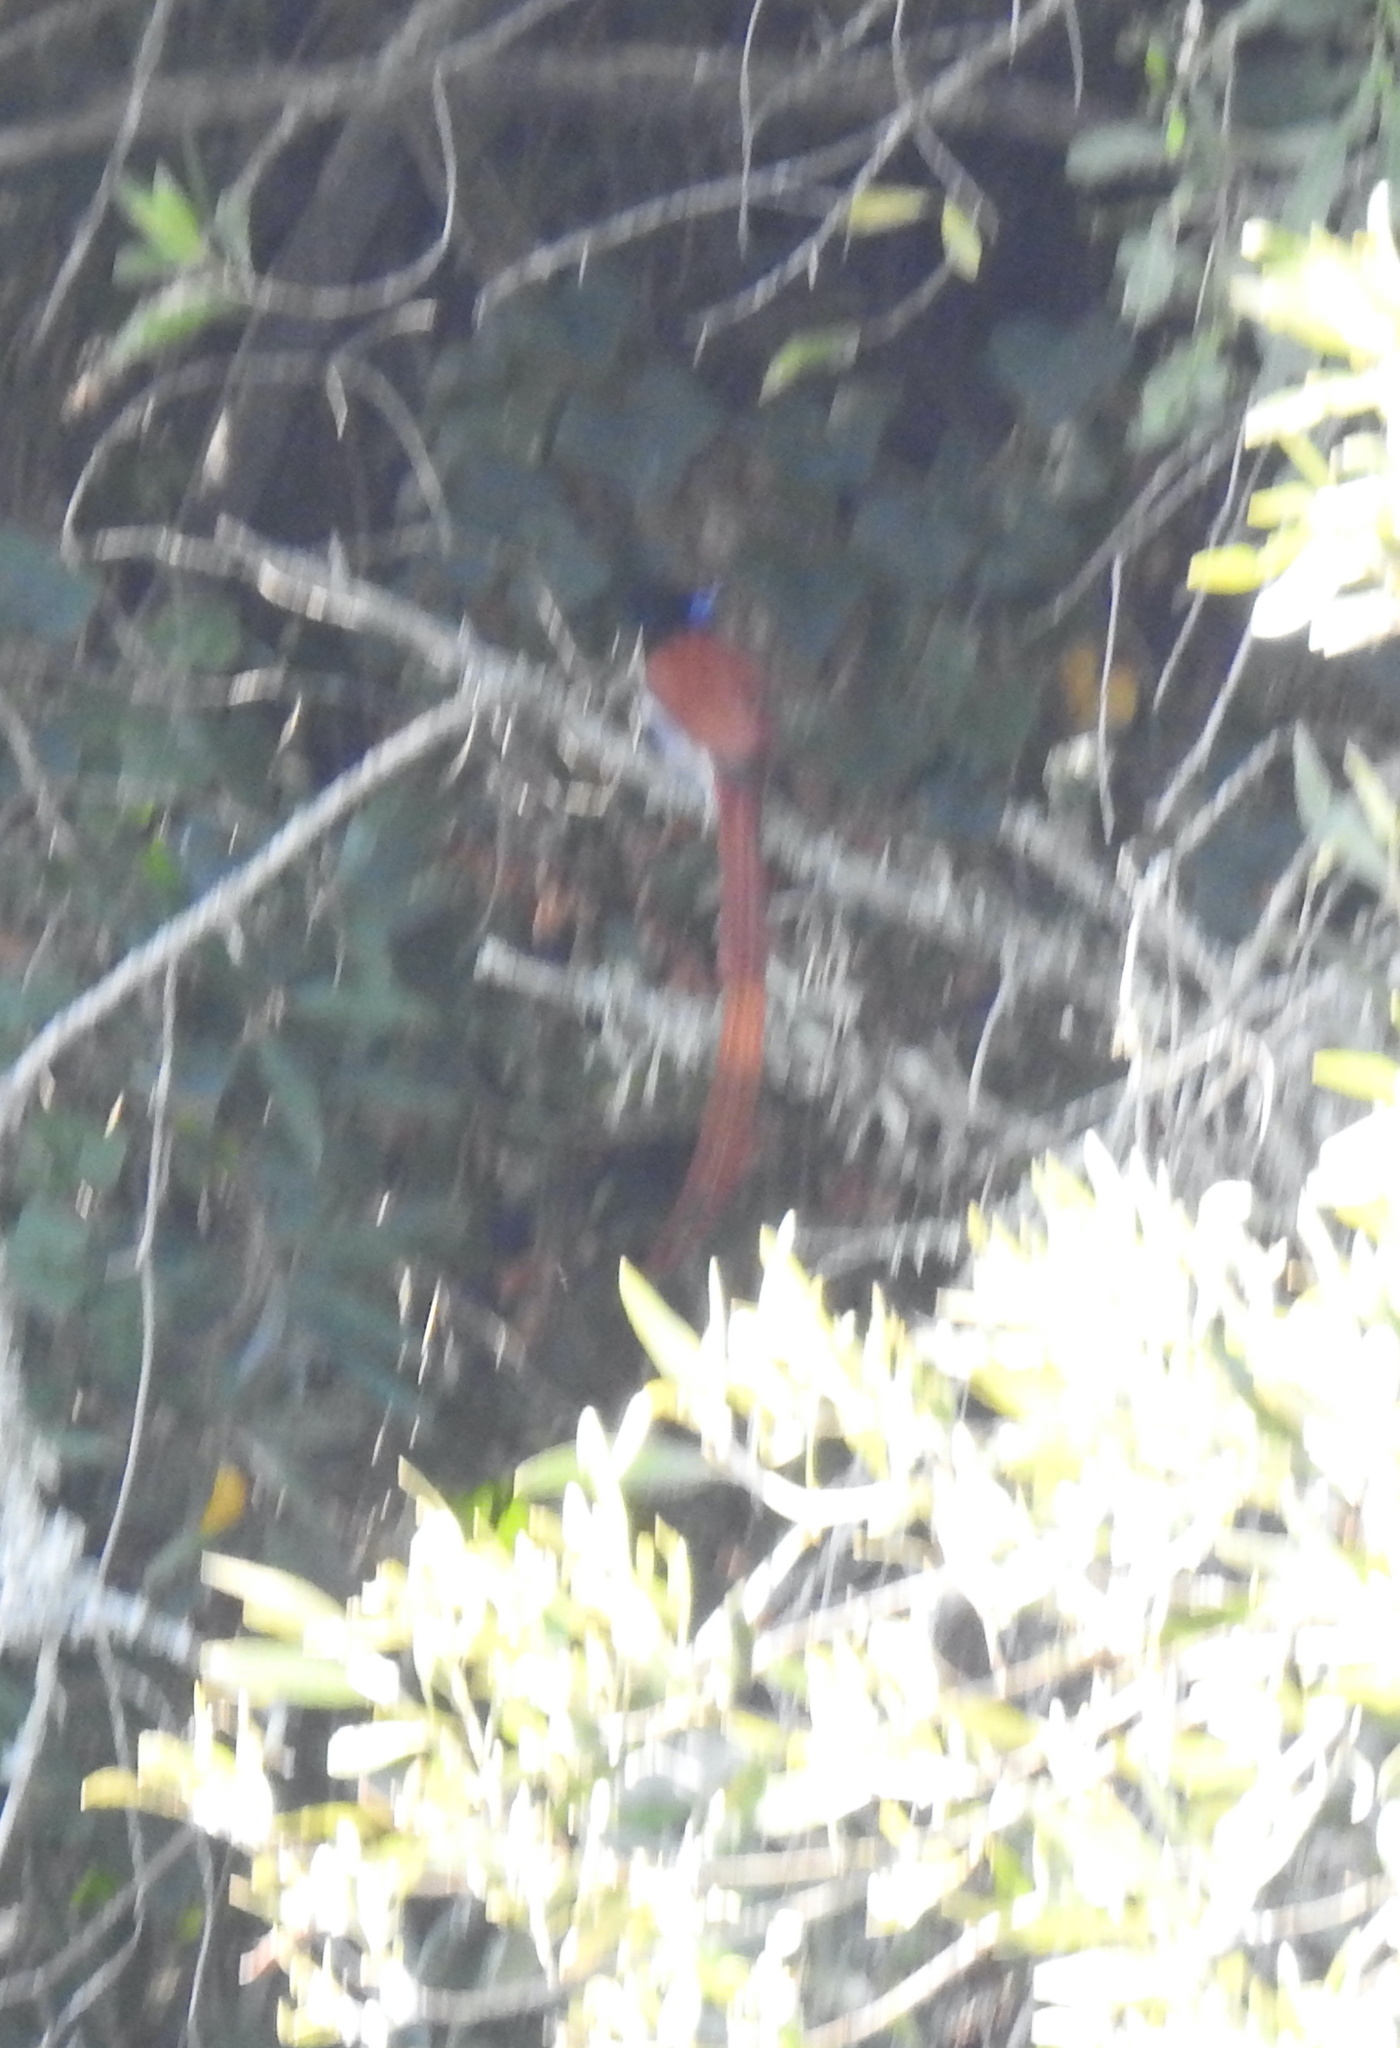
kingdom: Animalia
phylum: Chordata
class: Aves
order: Passeriformes
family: Monarchidae
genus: Terpsiphone
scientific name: Terpsiphone viridis
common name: African paradise flycatcher
